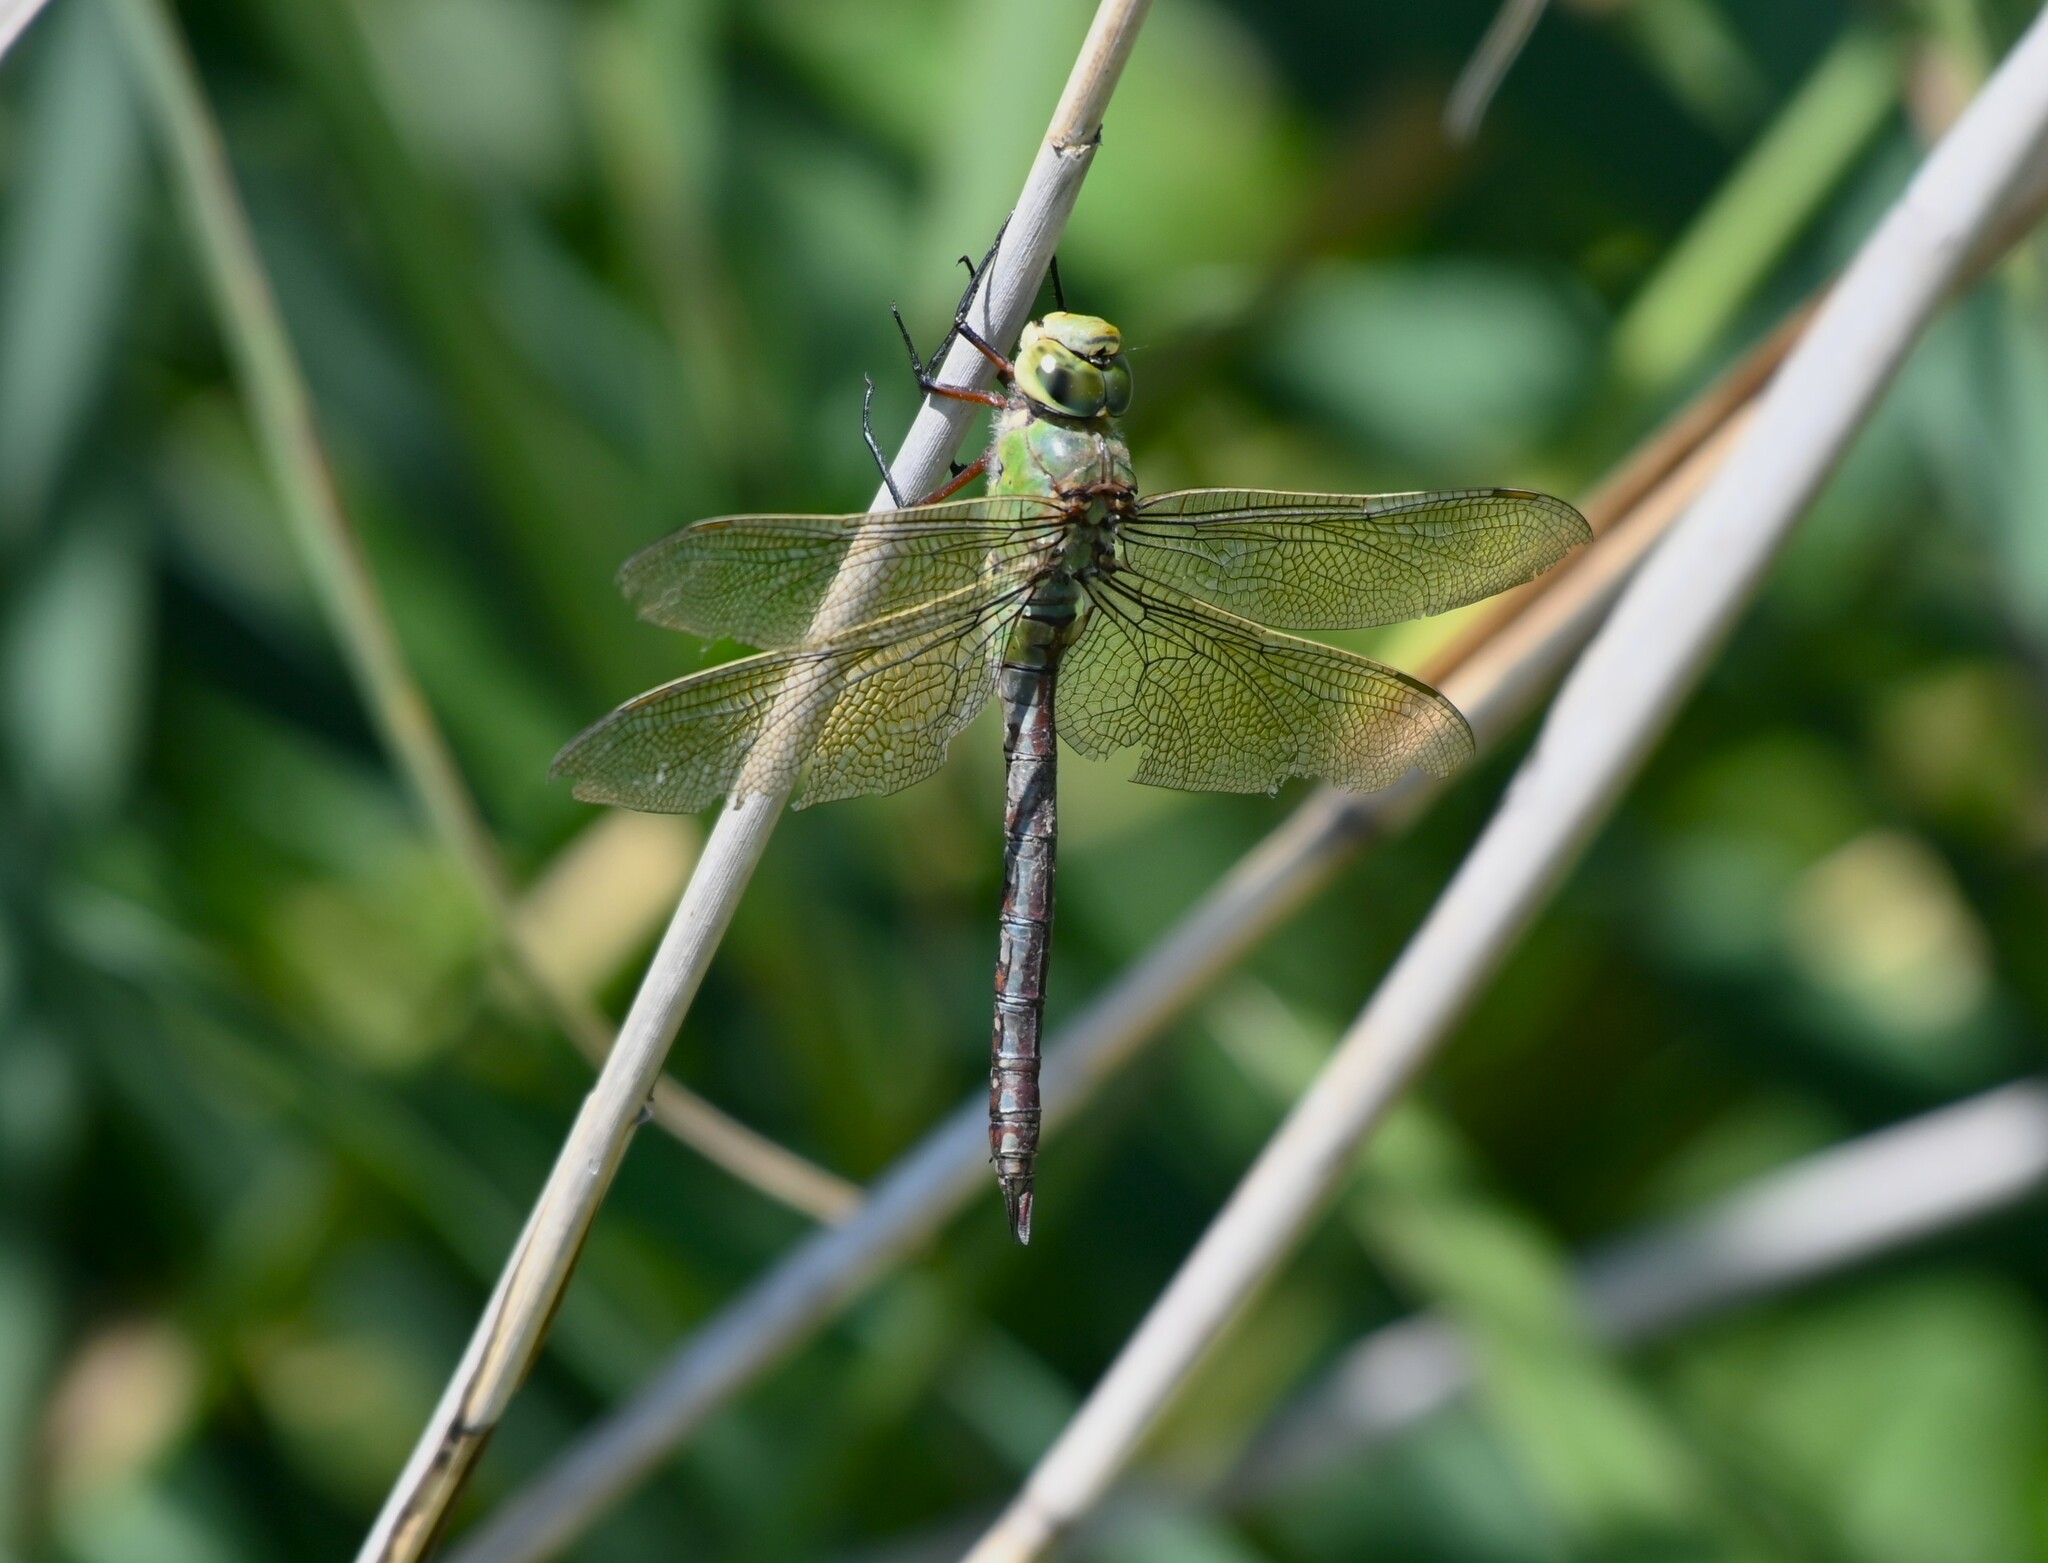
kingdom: Animalia
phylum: Arthropoda
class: Insecta
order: Odonata
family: Aeshnidae
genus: Anax
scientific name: Anax imperator
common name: Emperor dragonfly
